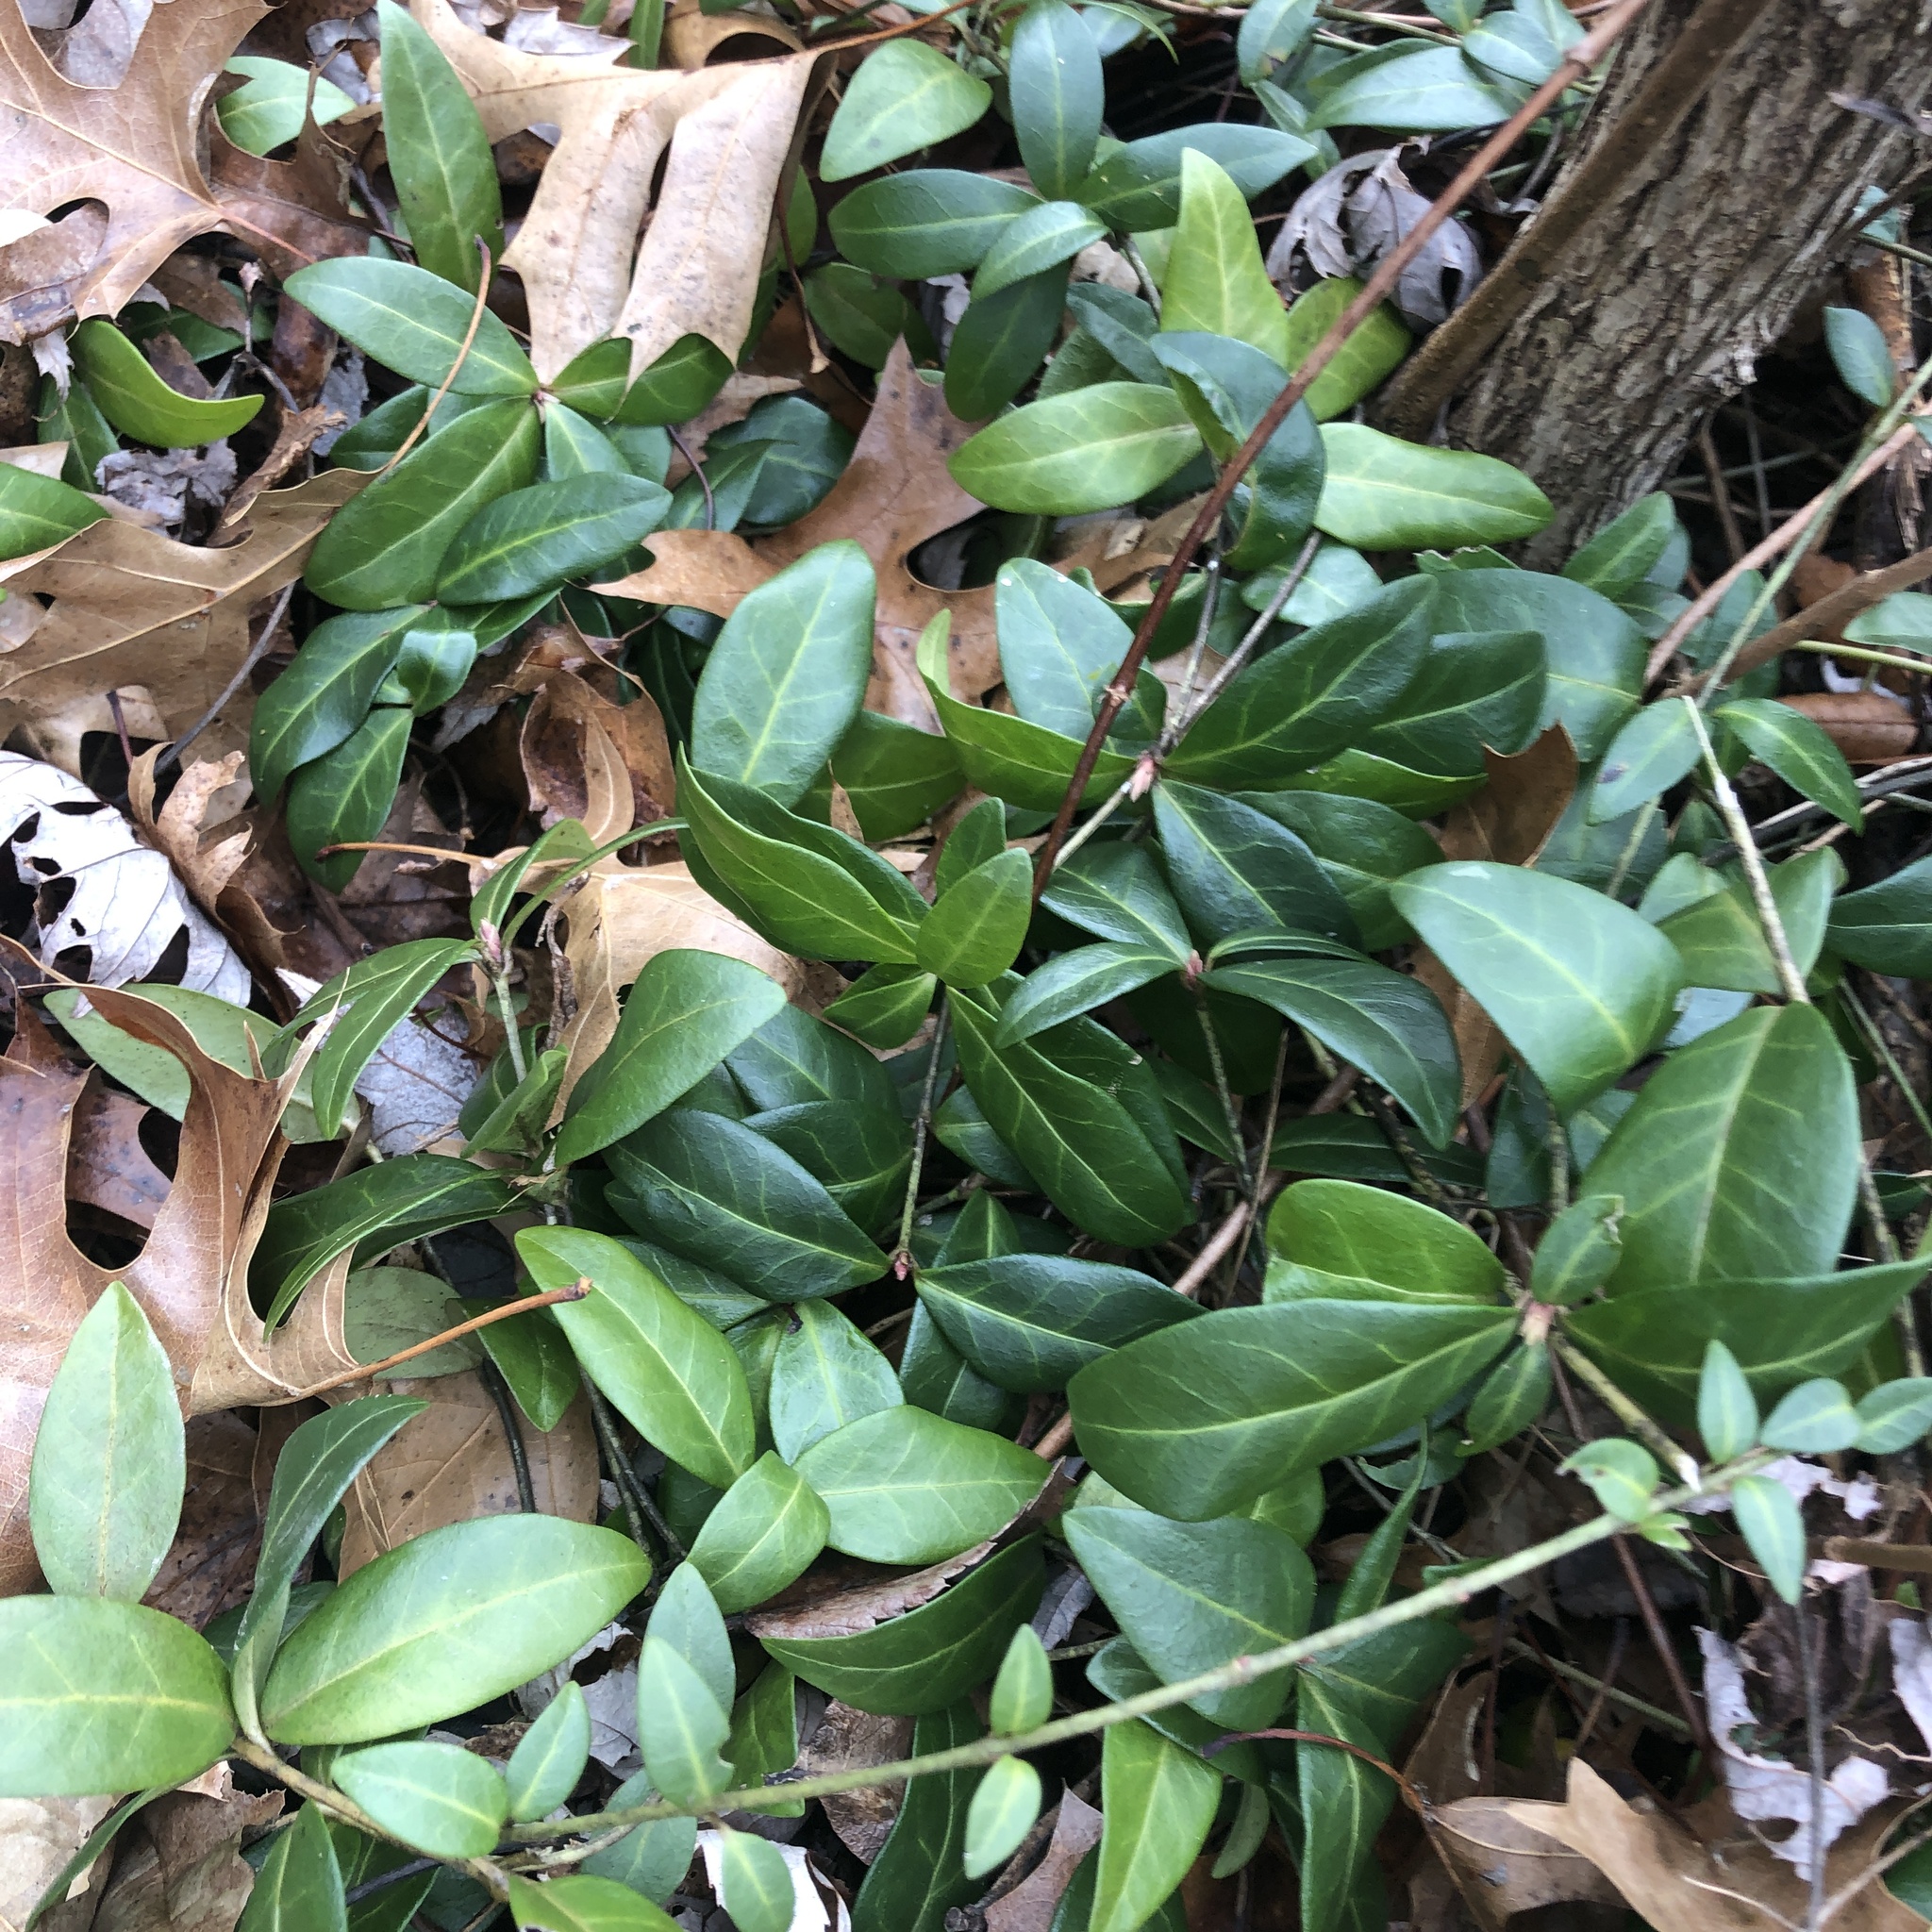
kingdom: Plantae
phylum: Tracheophyta
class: Magnoliopsida
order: Gentianales
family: Apocynaceae
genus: Vinca
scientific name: Vinca minor
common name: Lesser periwinkle
